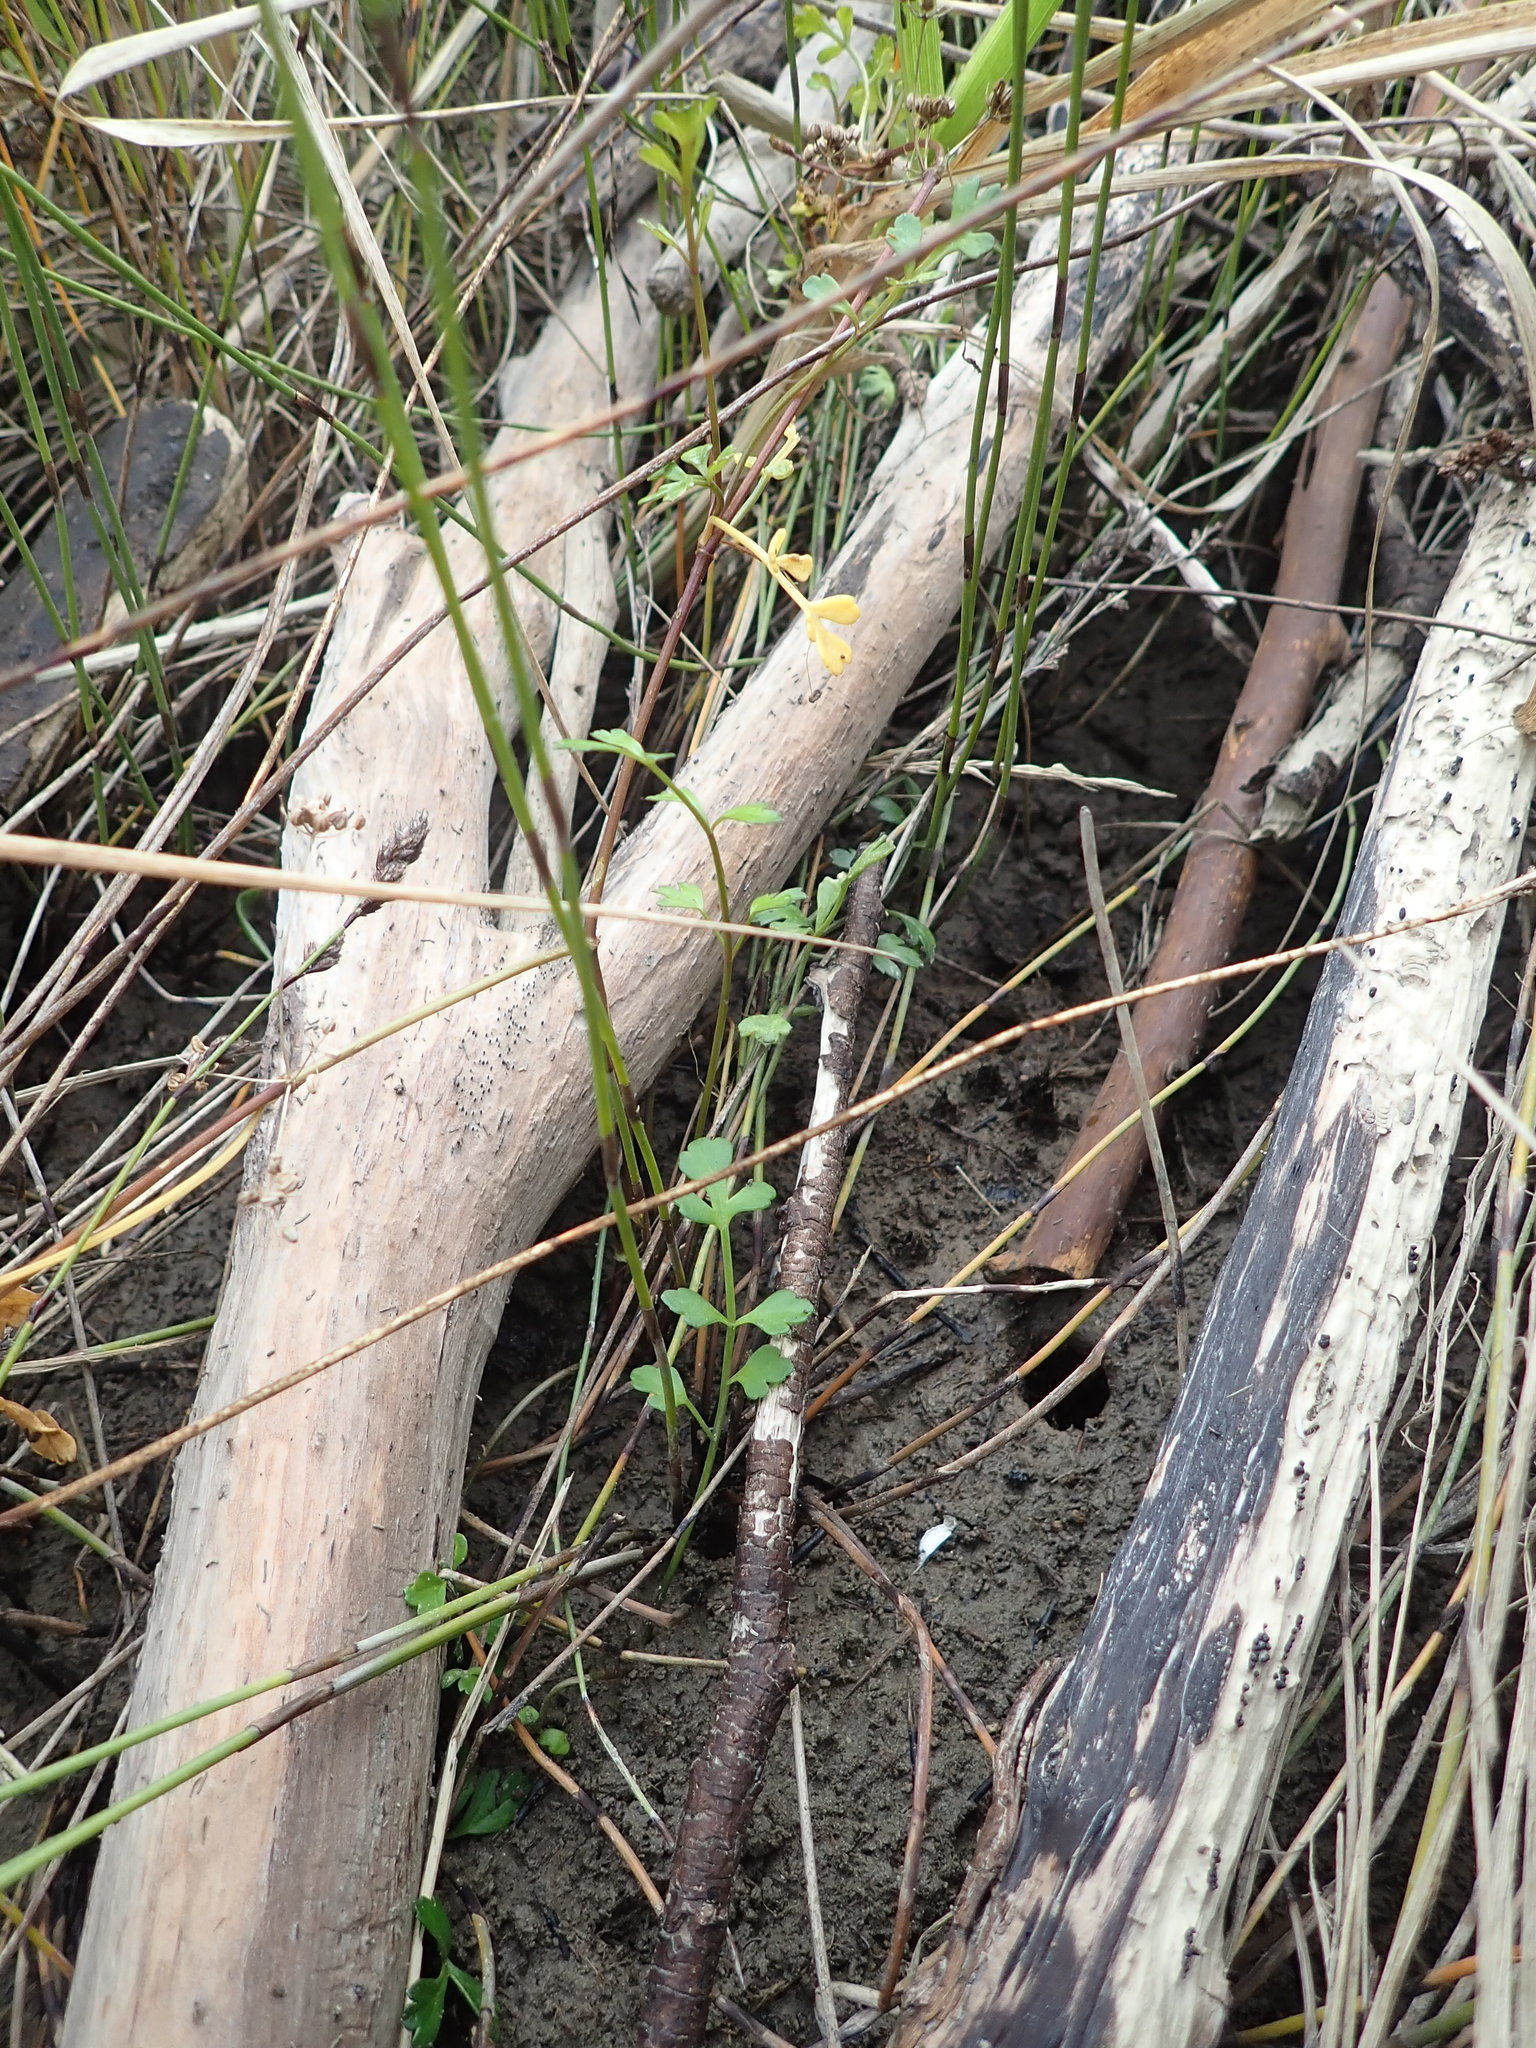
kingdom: Plantae
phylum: Tracheophyta
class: Magnoliopsida
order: Apiales
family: Apiaceae
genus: Apium
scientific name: Apium prostratum
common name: Prostrate marshwort
